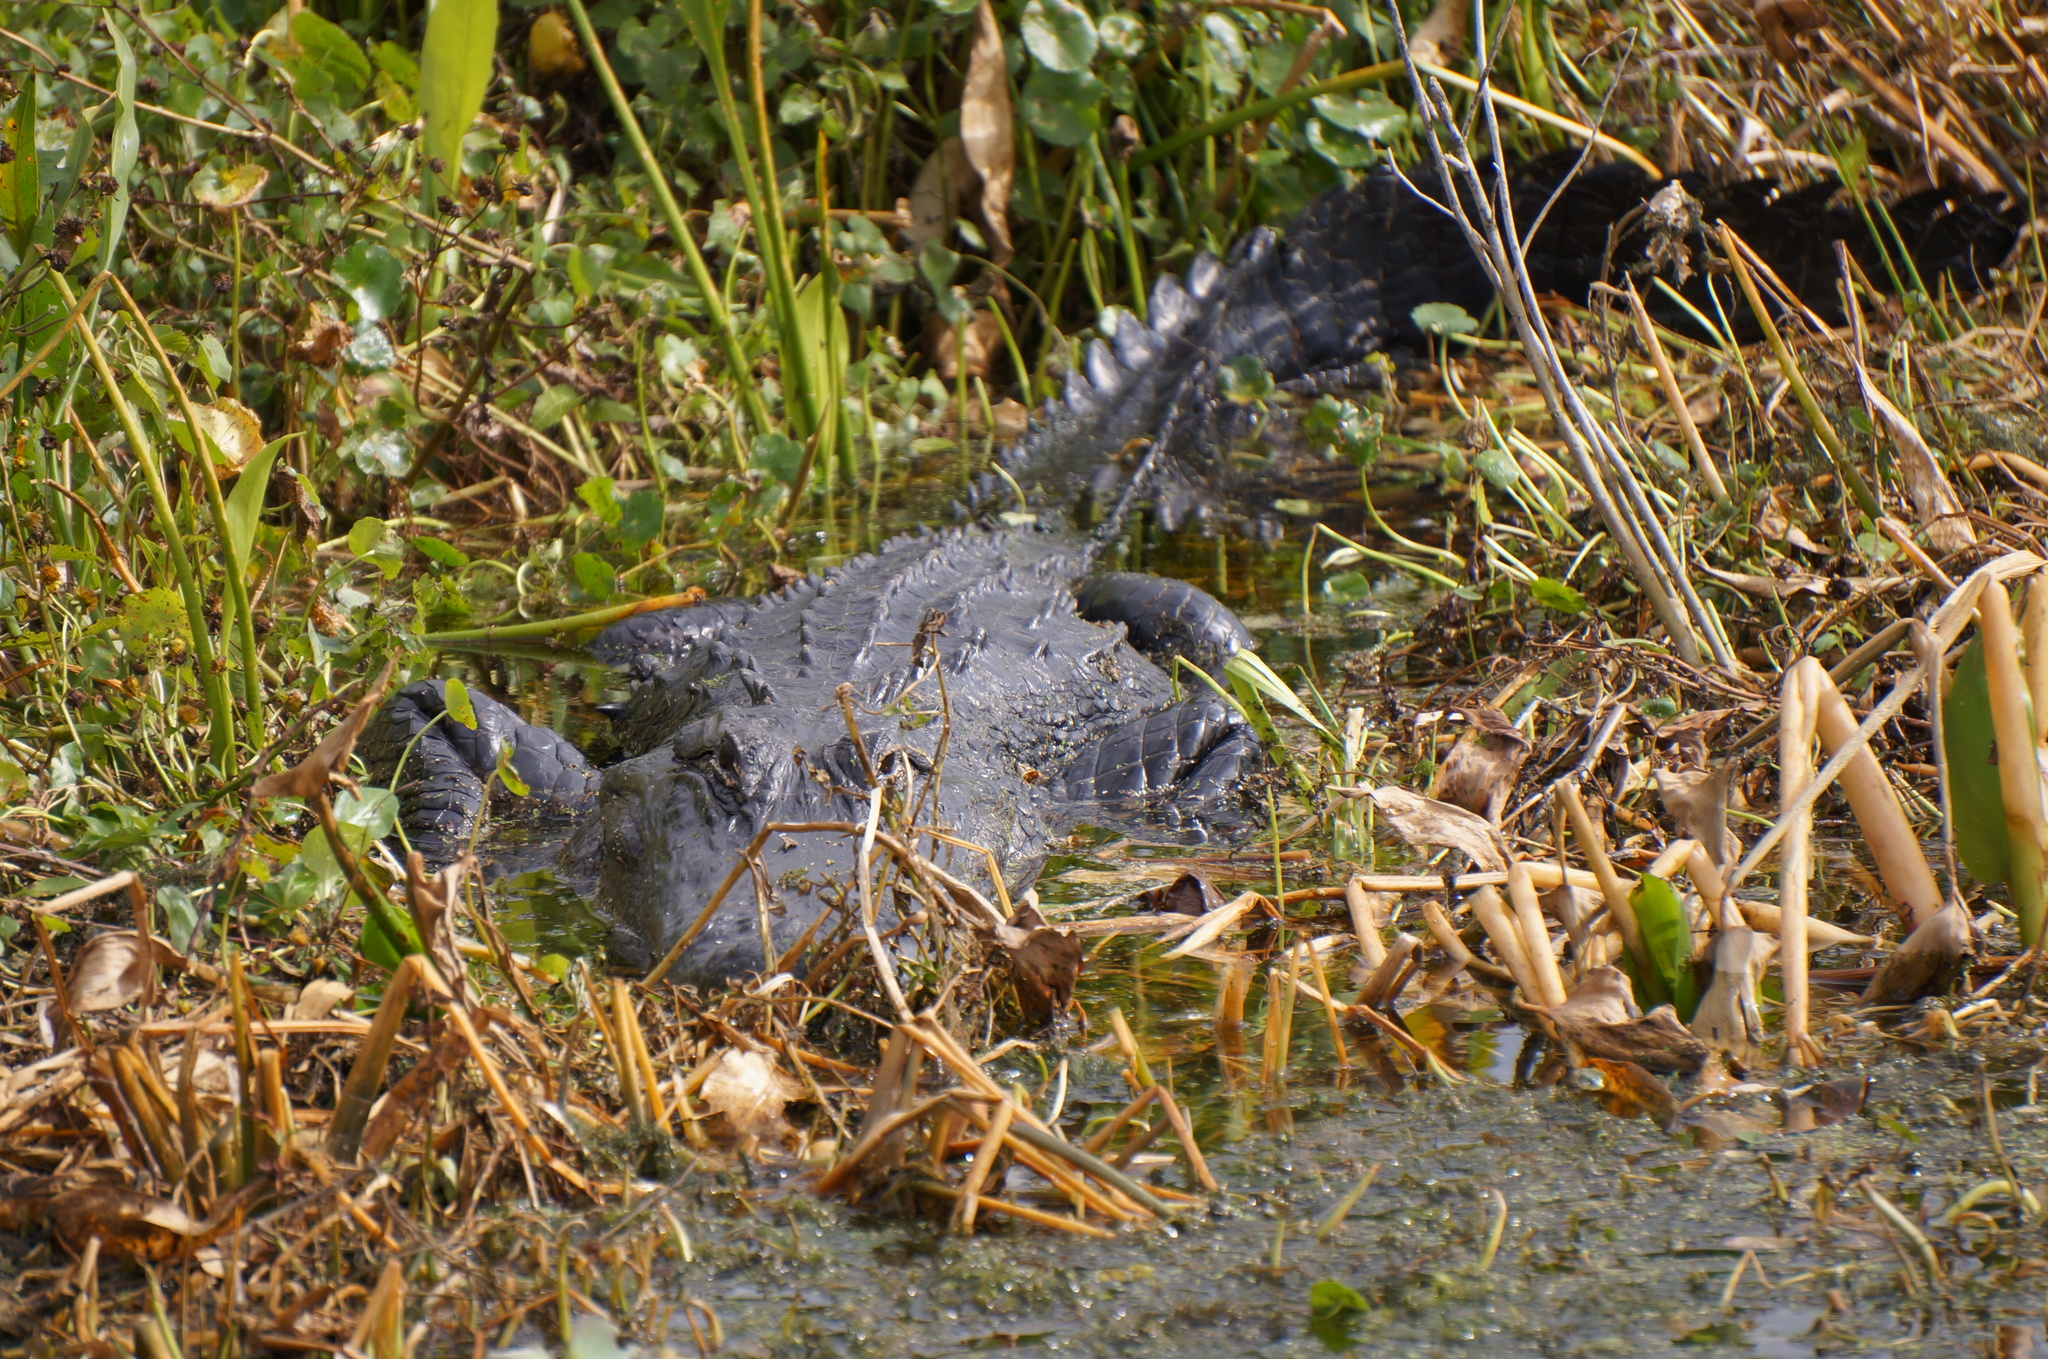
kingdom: Animalia
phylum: Chordata
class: Crocodylia
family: Alligatoridae
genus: Alligator
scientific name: Alligator mississippiensis
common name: American alligator
